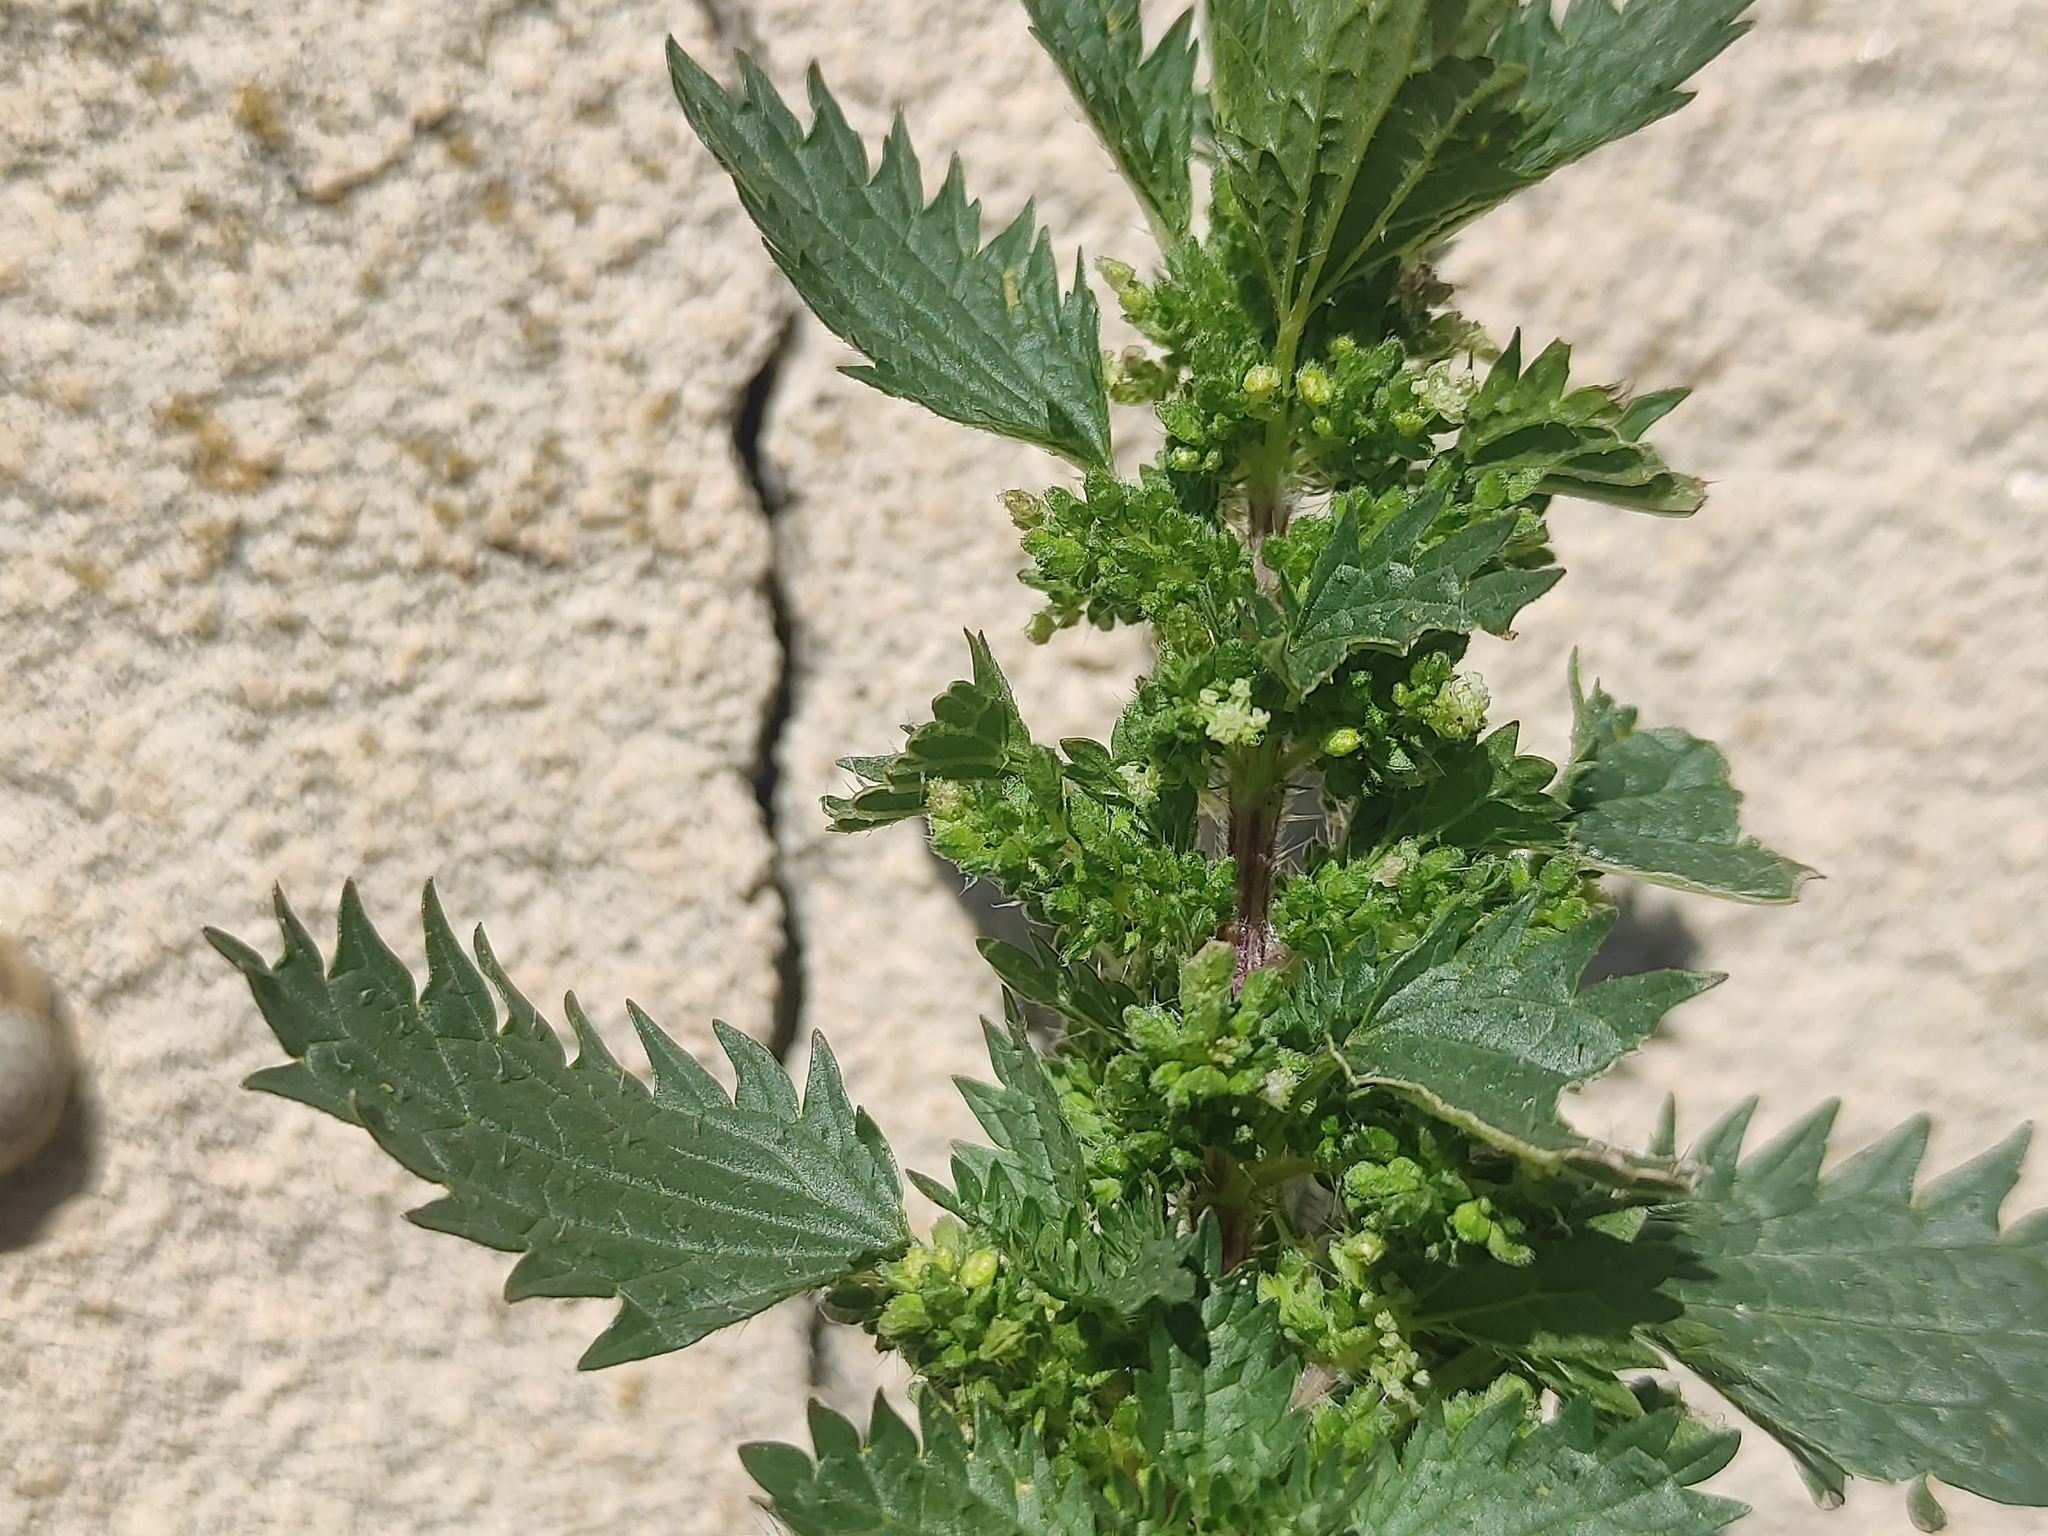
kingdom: Plantae
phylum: Tracheophyta
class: Magnoliopsida
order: Rosales
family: Urticaceae
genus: Urtica
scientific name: Urtica urens
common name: Dwarf nettle
